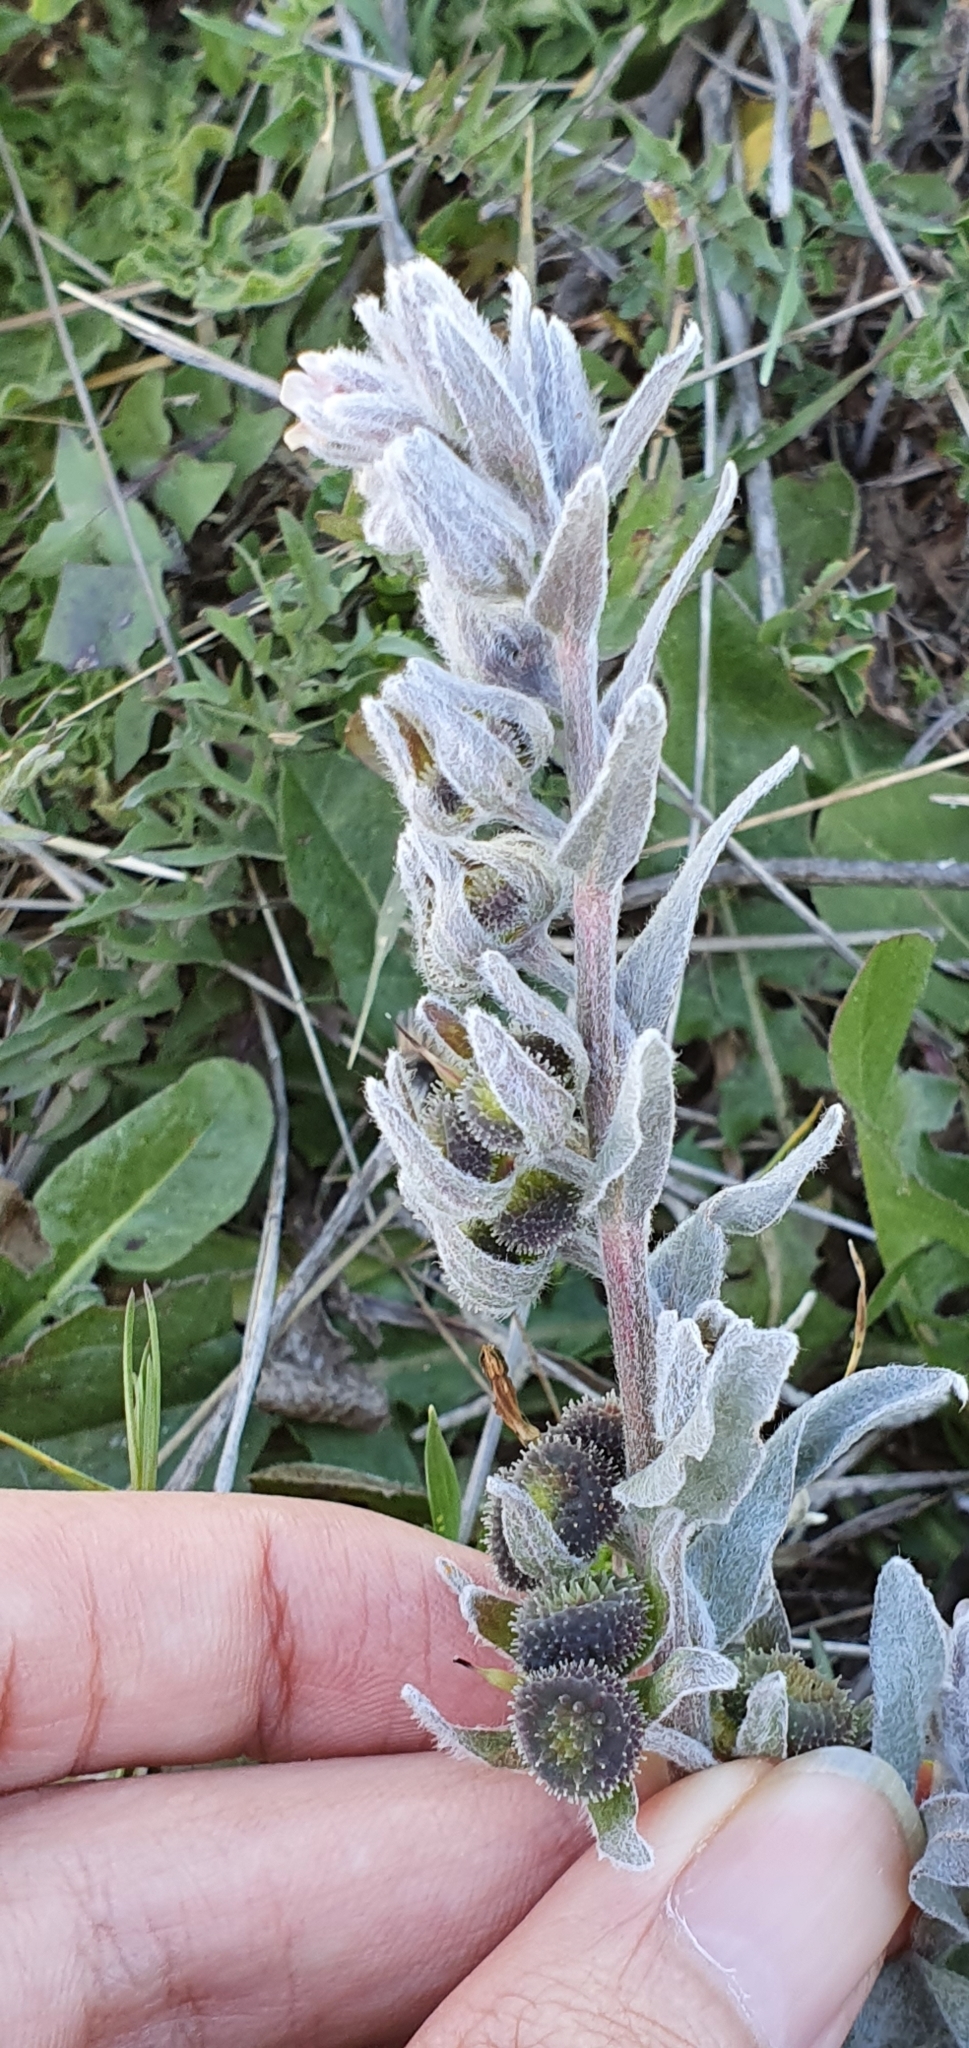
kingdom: Plantae
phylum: Tracheophyta
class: Magnoliopsida
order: Boraginales
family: Boraginaceae
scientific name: Boraginaceae
